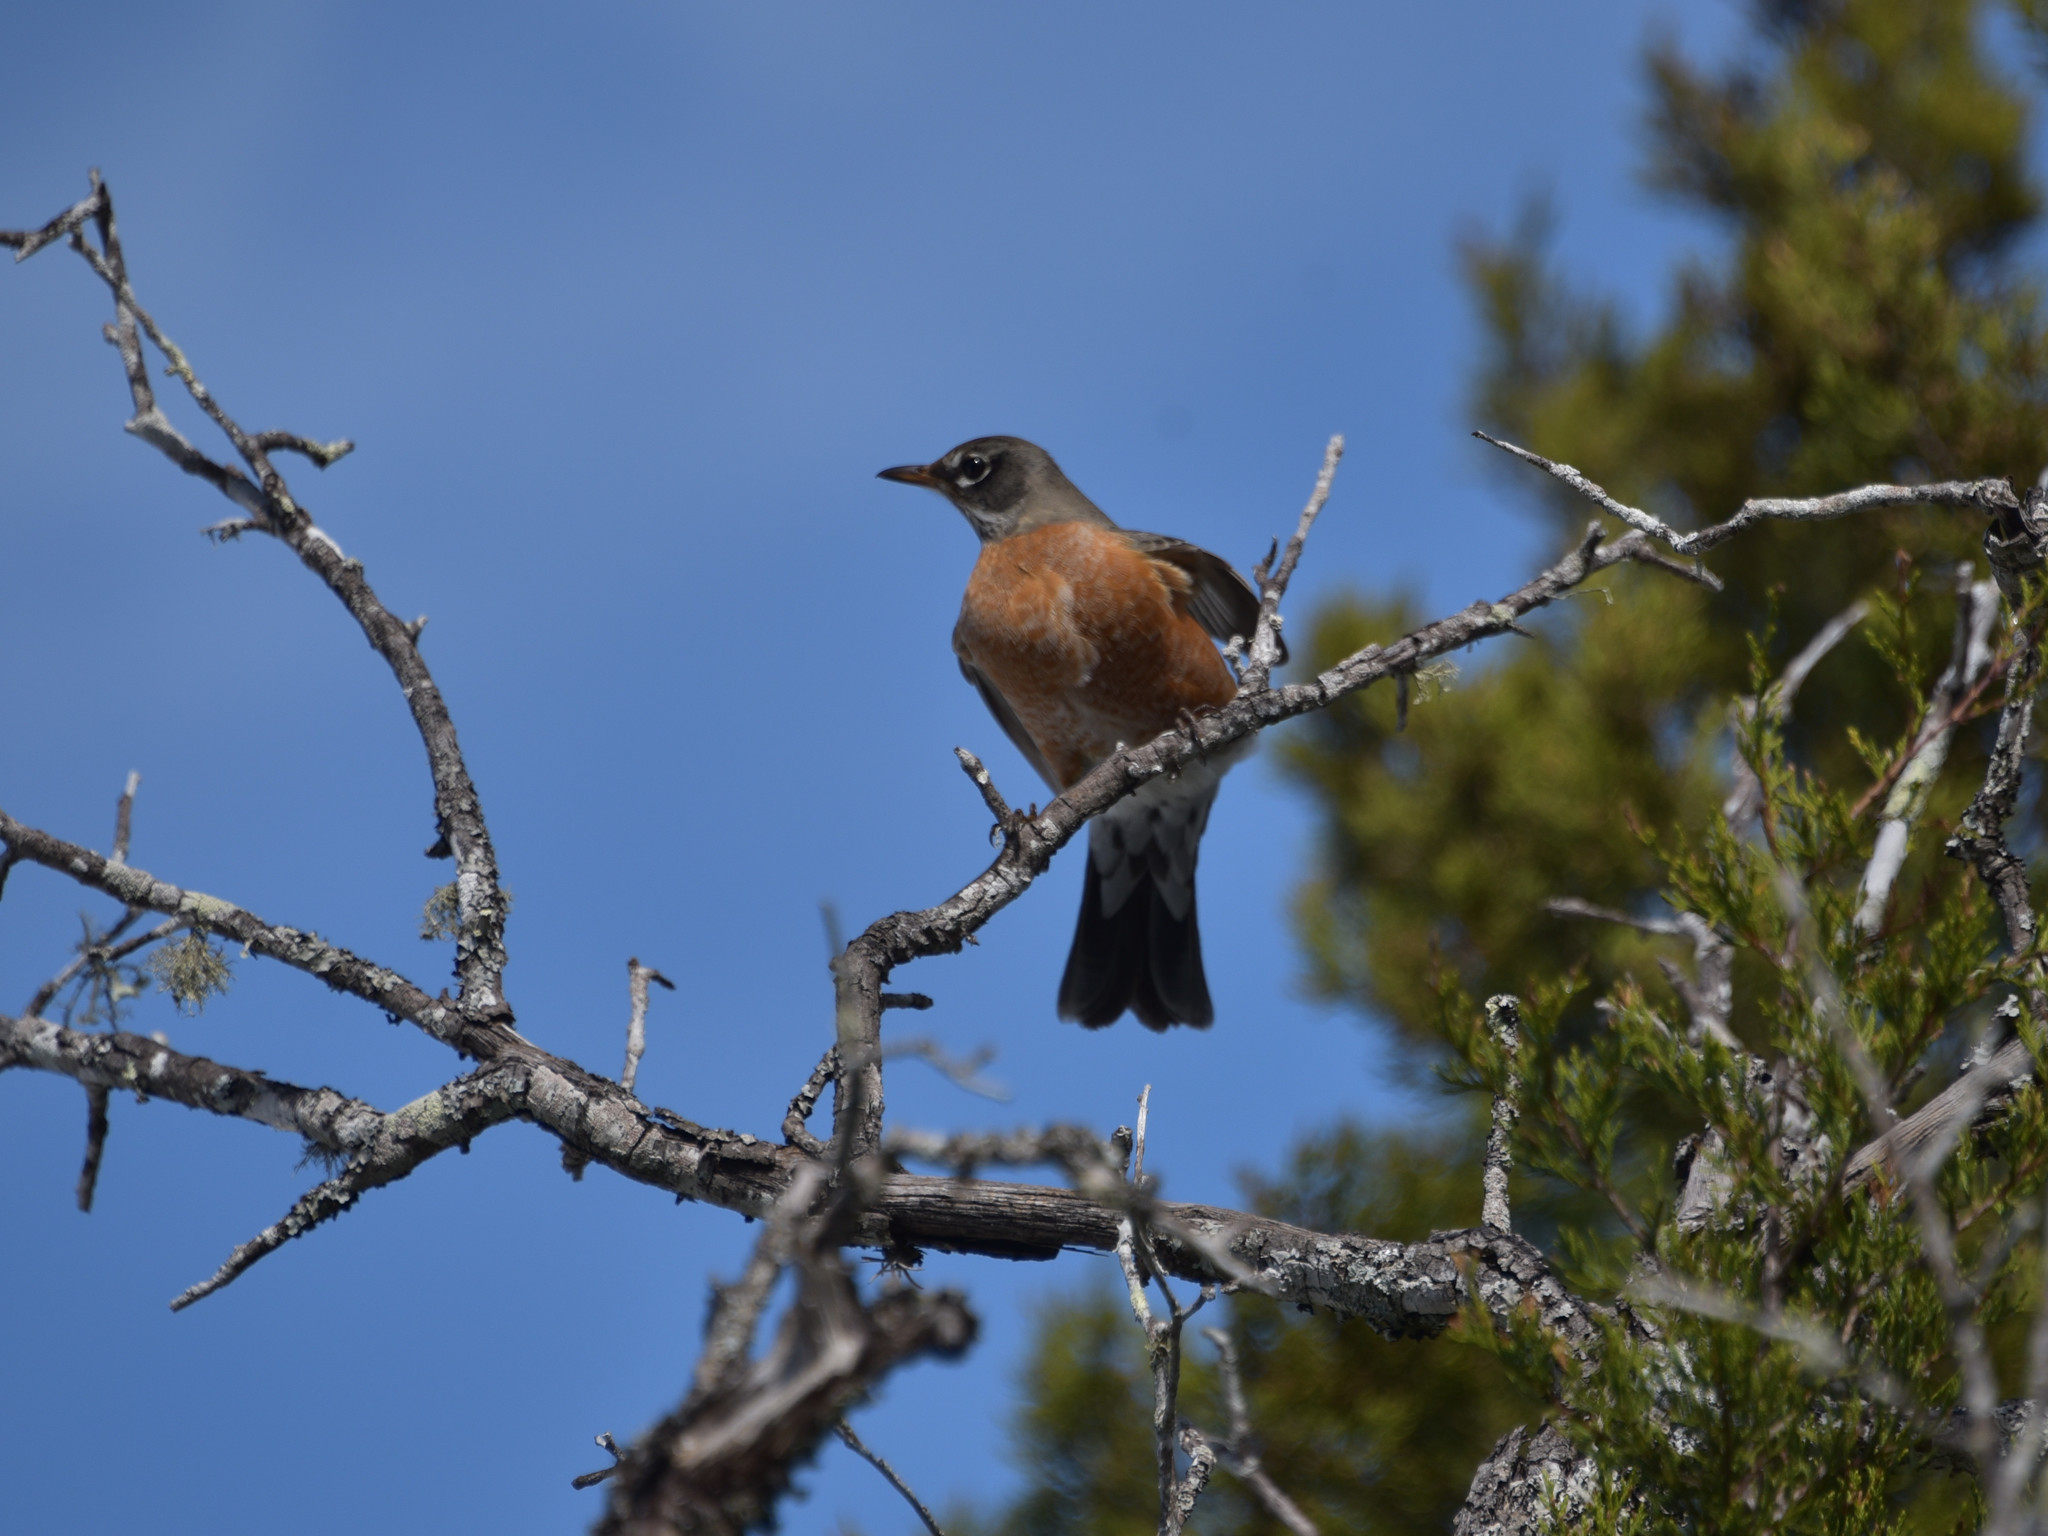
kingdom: Animalia
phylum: Chordata
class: Aves
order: Passeriformes
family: Turdidae
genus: Turdus
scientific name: Turdus migratorius
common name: American robin
